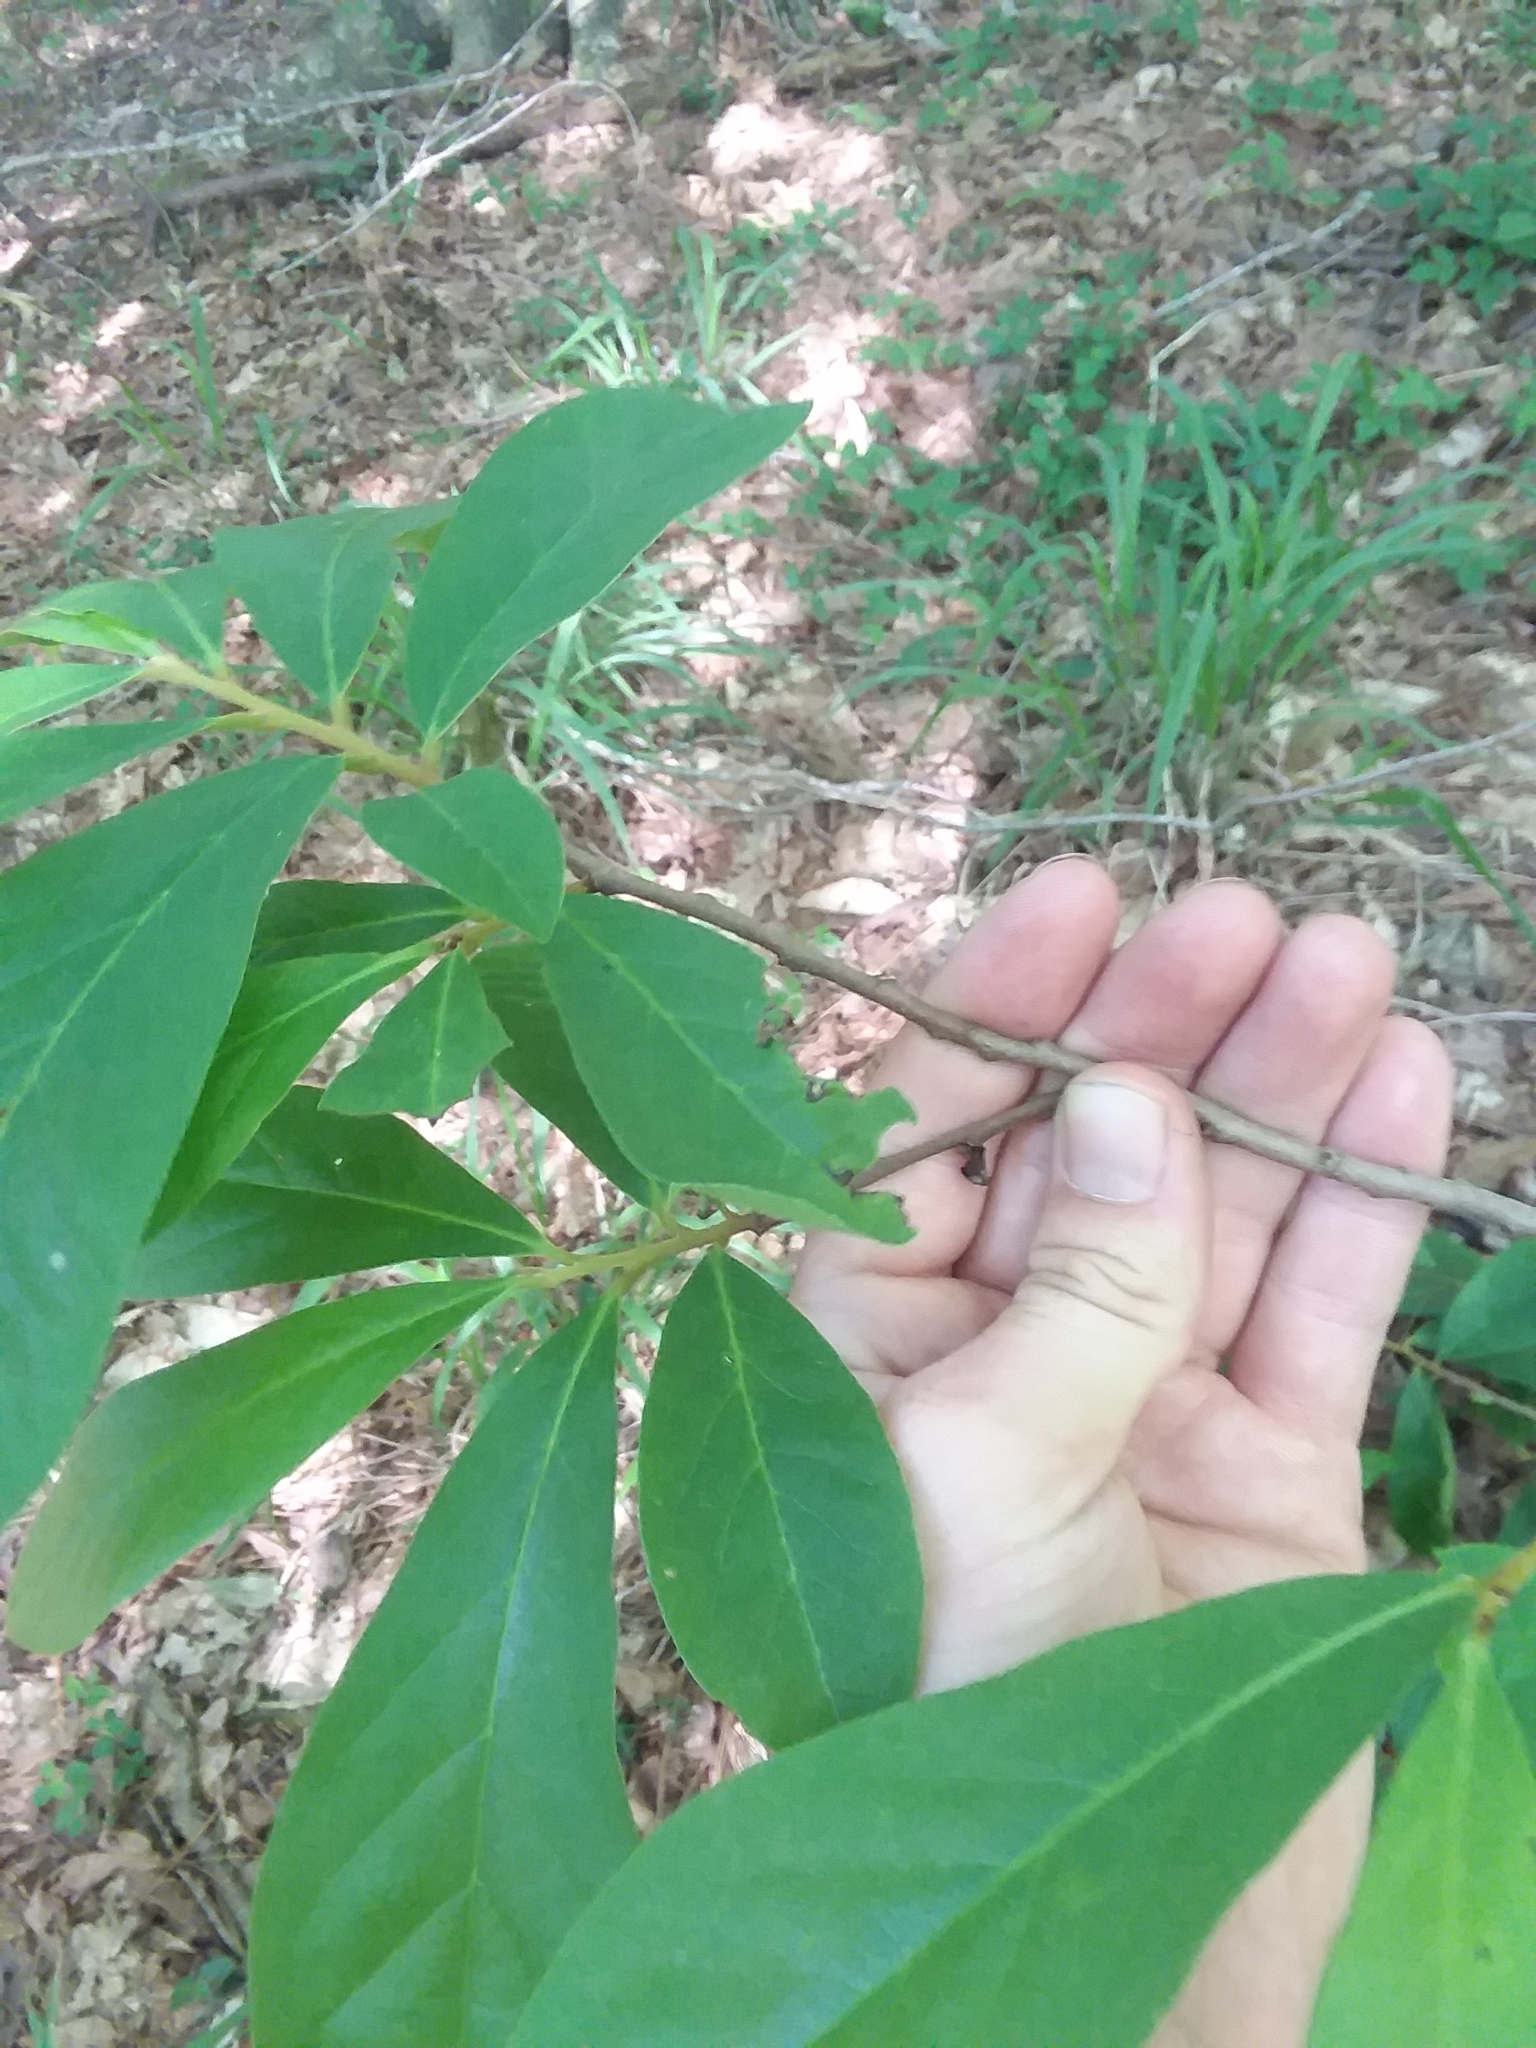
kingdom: Plantae
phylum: Tracheophyta
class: Magnoliopsida
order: Magnoliales
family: Annonaceae
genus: Asimina
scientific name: Asimina parviflora
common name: Dwarf pawpaw
